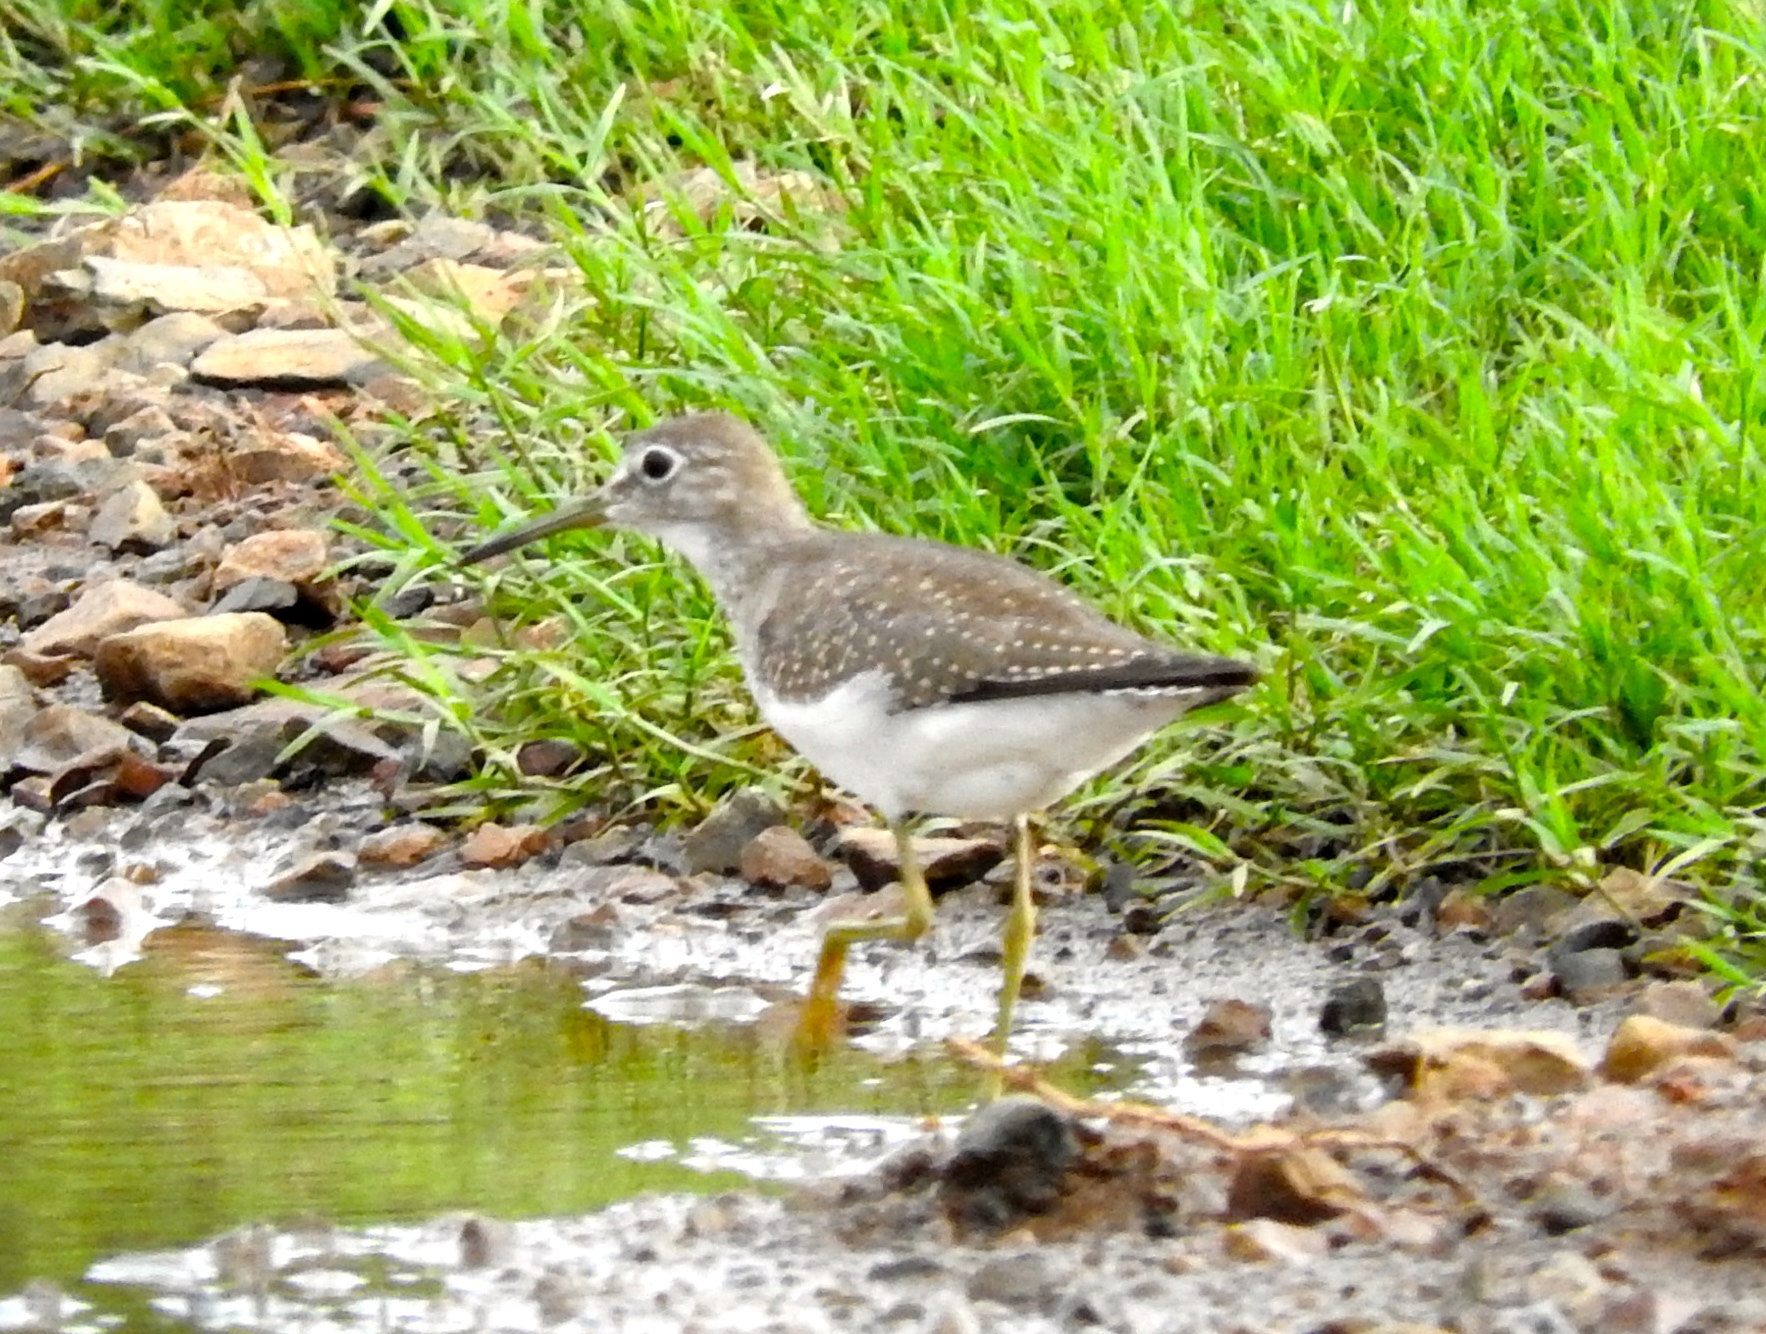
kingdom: Animalia
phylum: Chordata
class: Aves
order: Charadriiformes
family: Scolopacidae
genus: Tringa
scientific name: Tringa solitaria
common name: Solitary sandpiper
